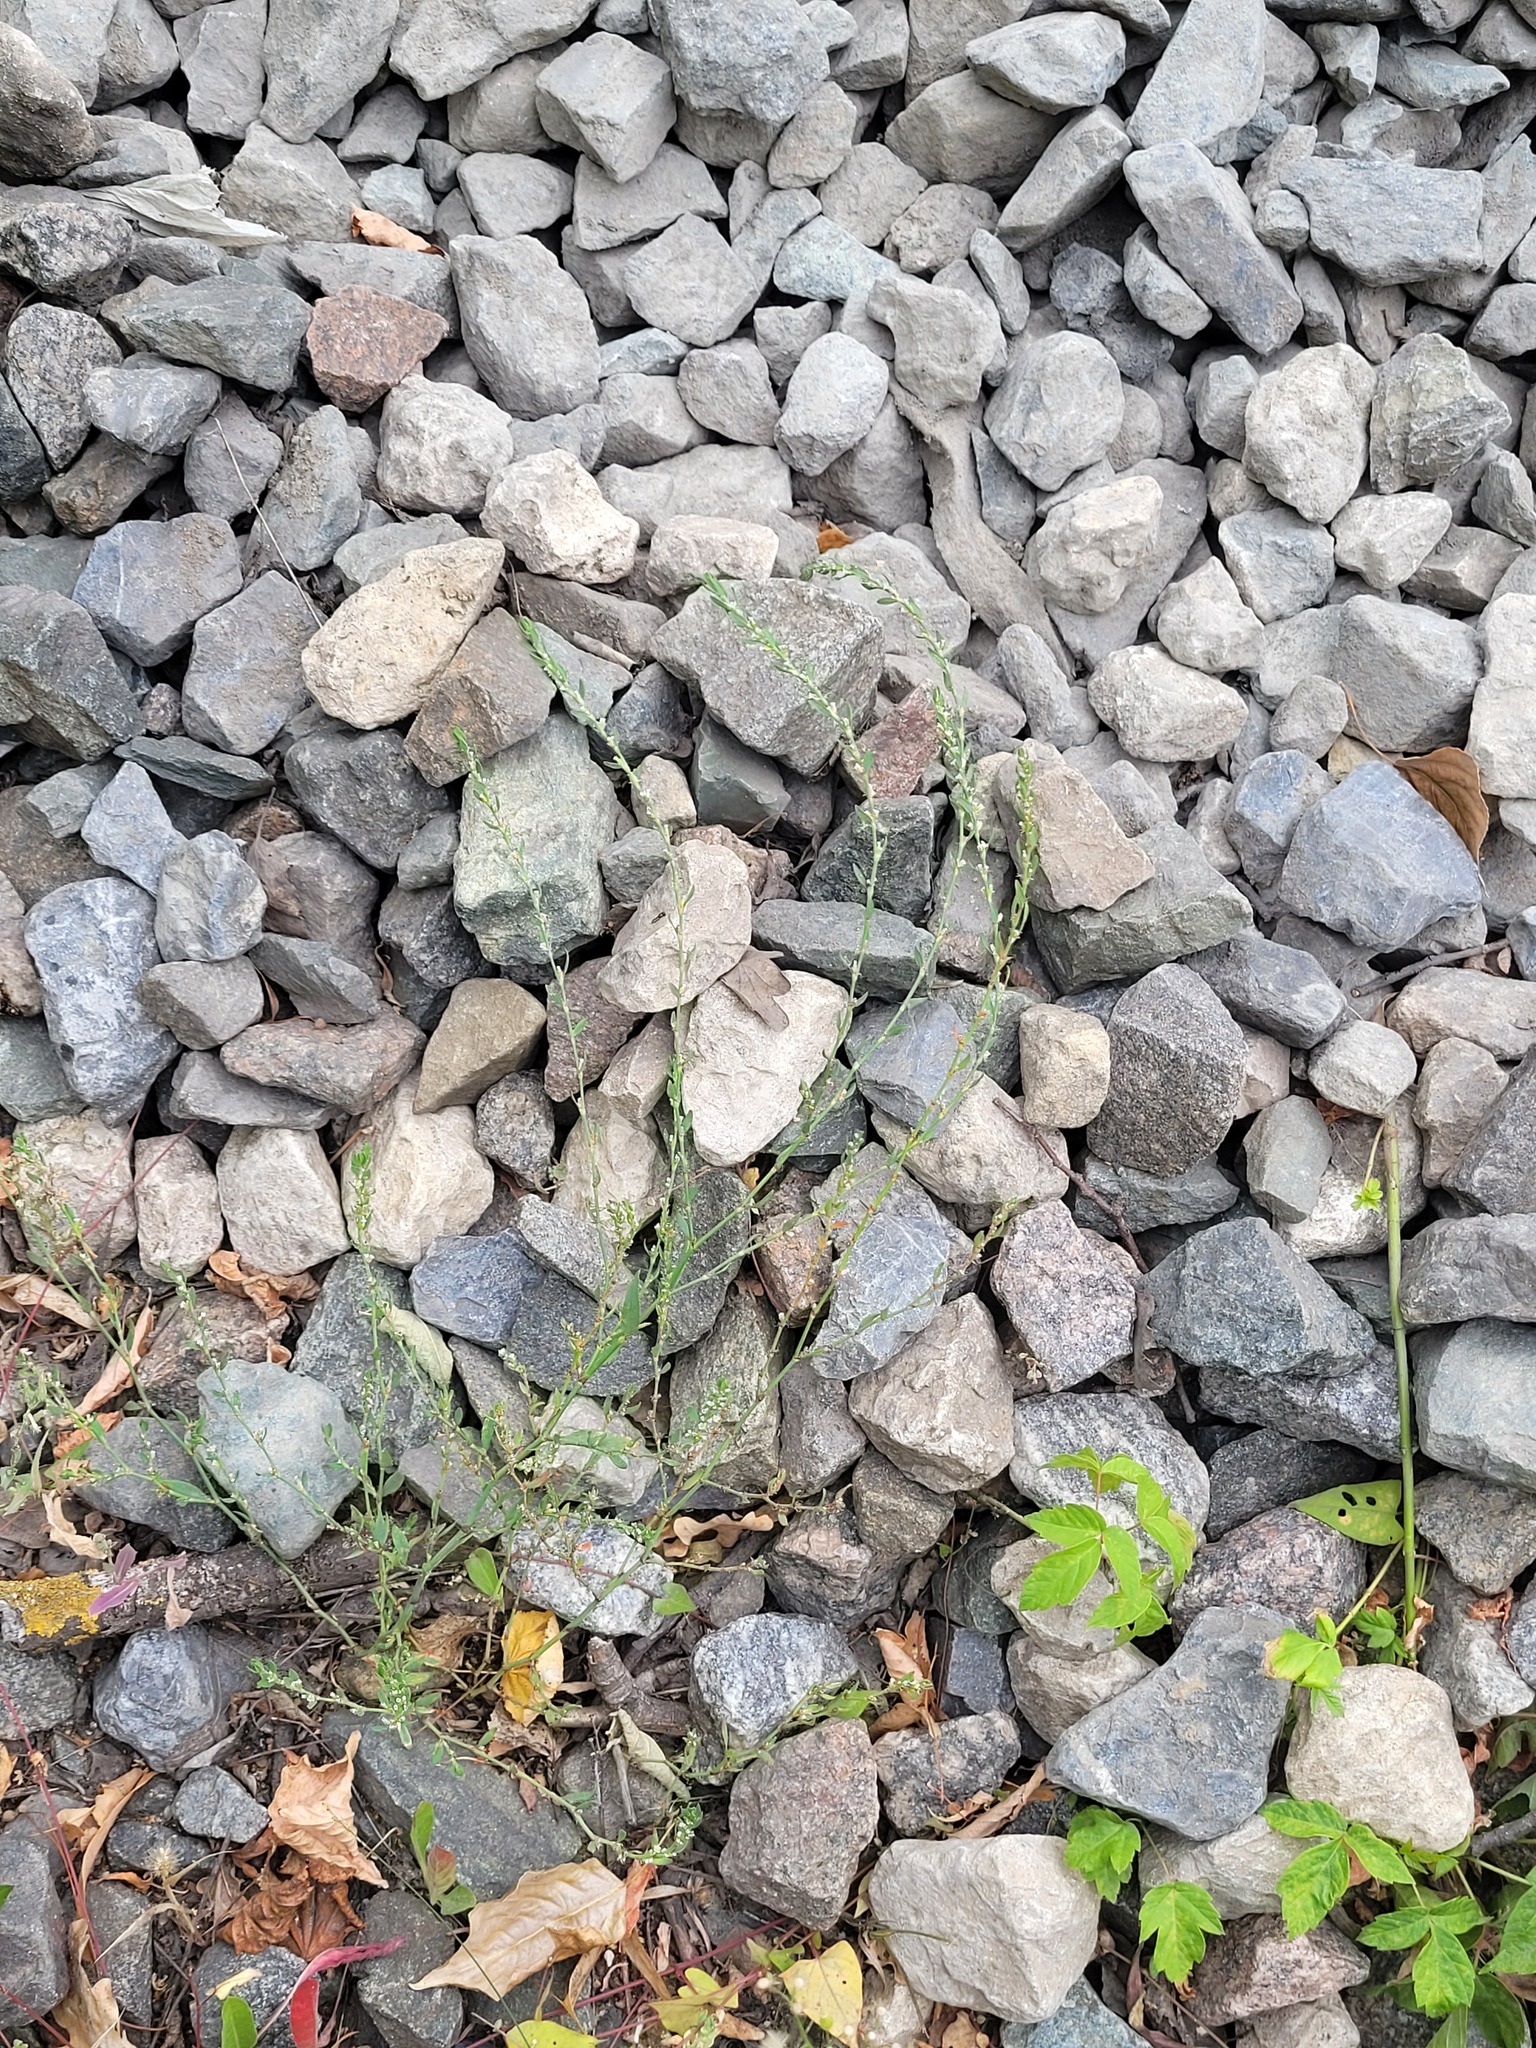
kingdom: Plantae
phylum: Tracheophyta
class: Magnoliopsida
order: Caryophyllales
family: Polygonaceae
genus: Polygonum
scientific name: Polygonum
